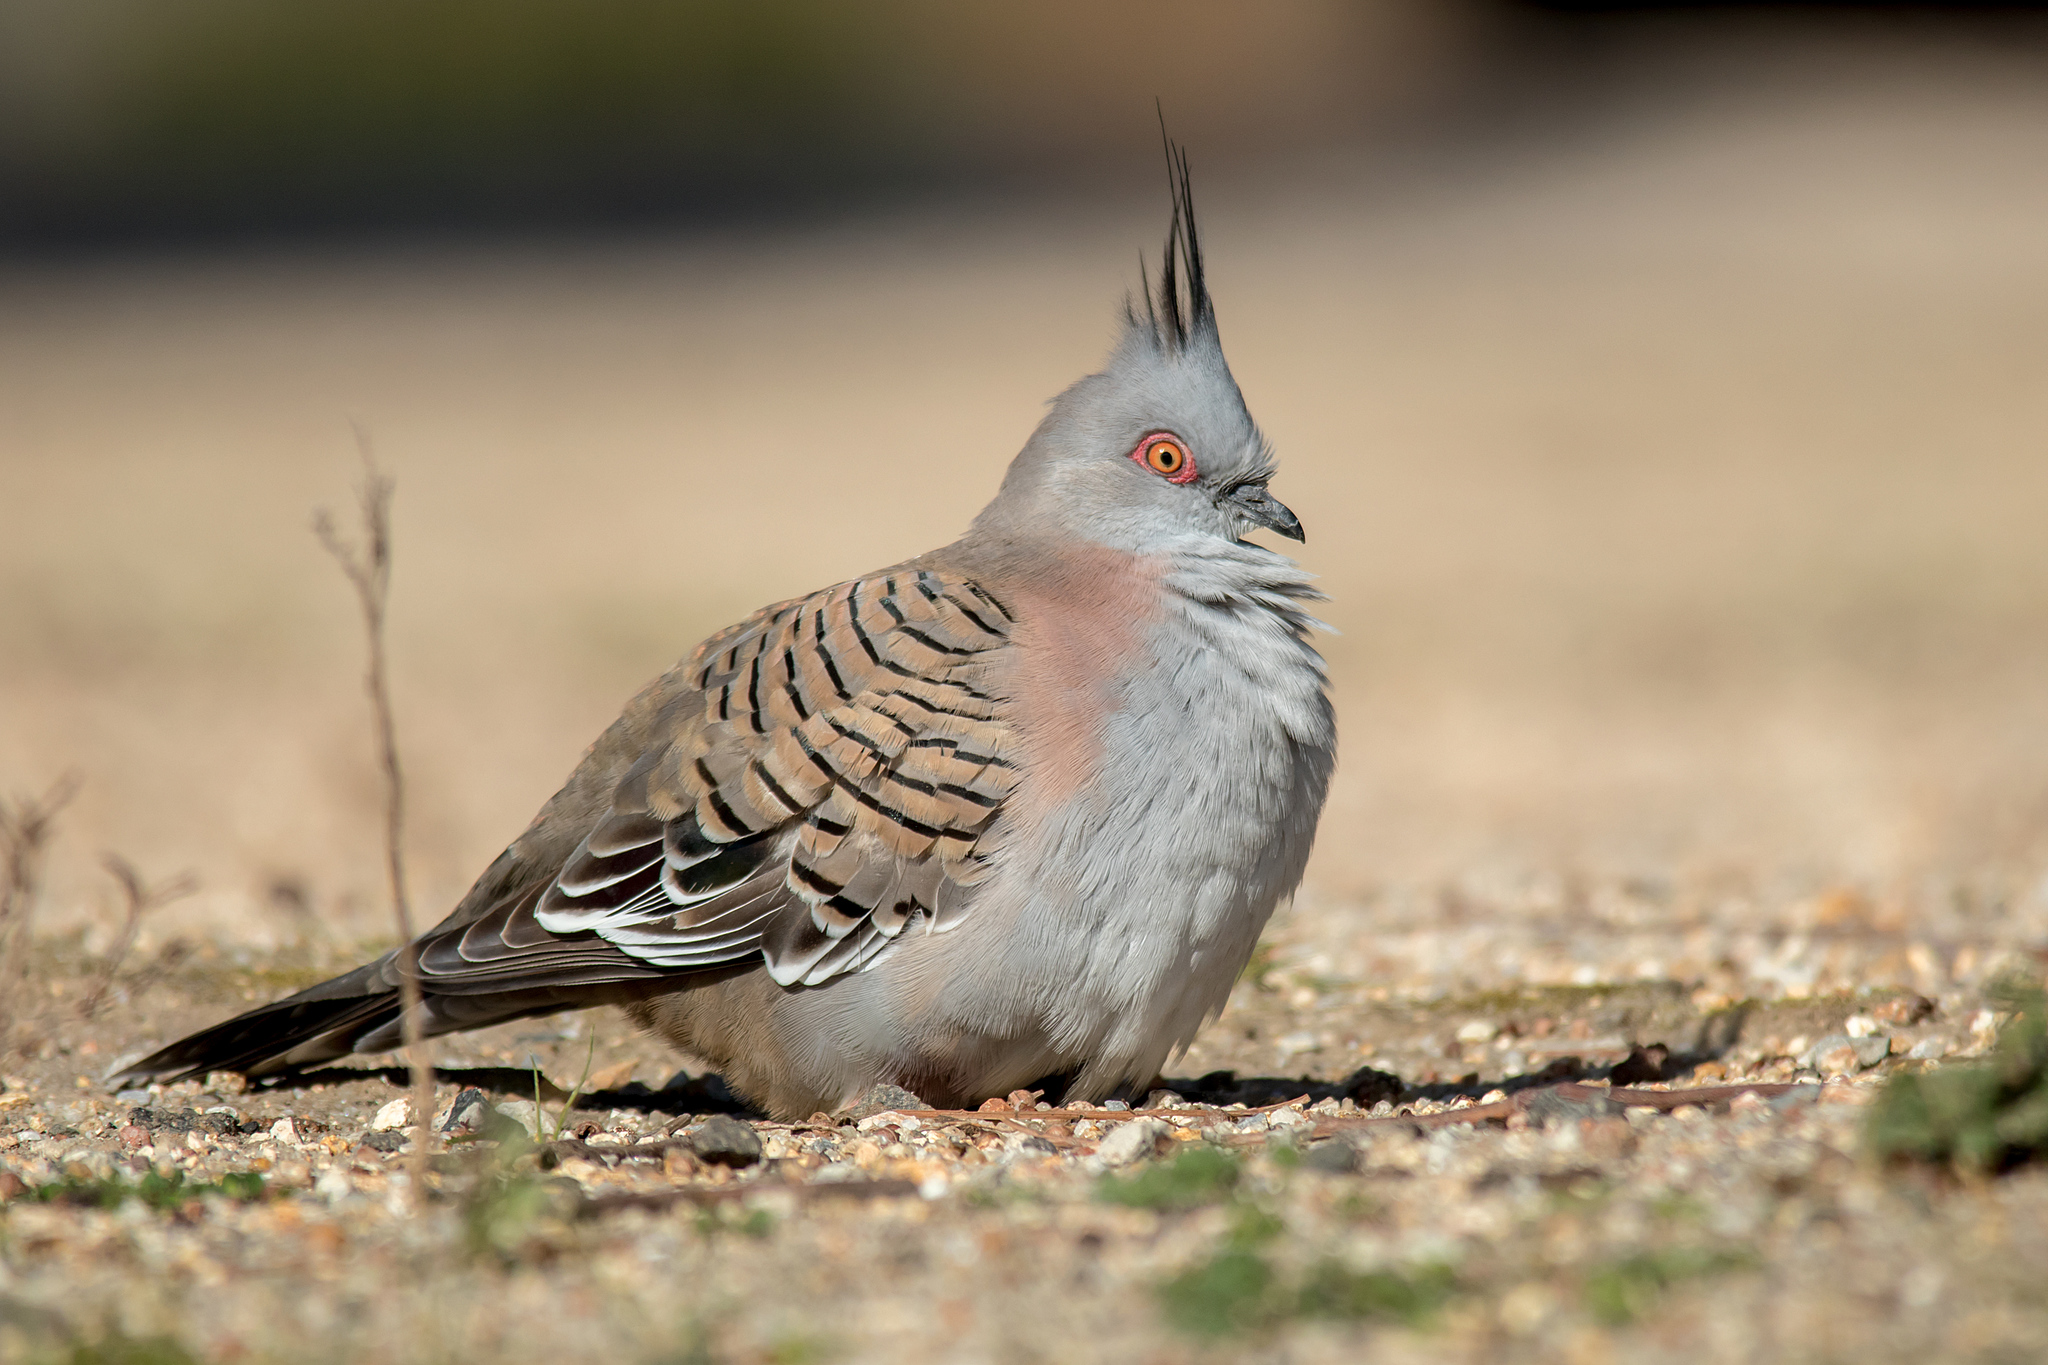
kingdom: Animalia
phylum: Chordata
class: Aves
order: Columbiformes
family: Columbidae
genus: Ocyphaps
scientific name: Ocyphaps lophotes
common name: Crested pigeon
